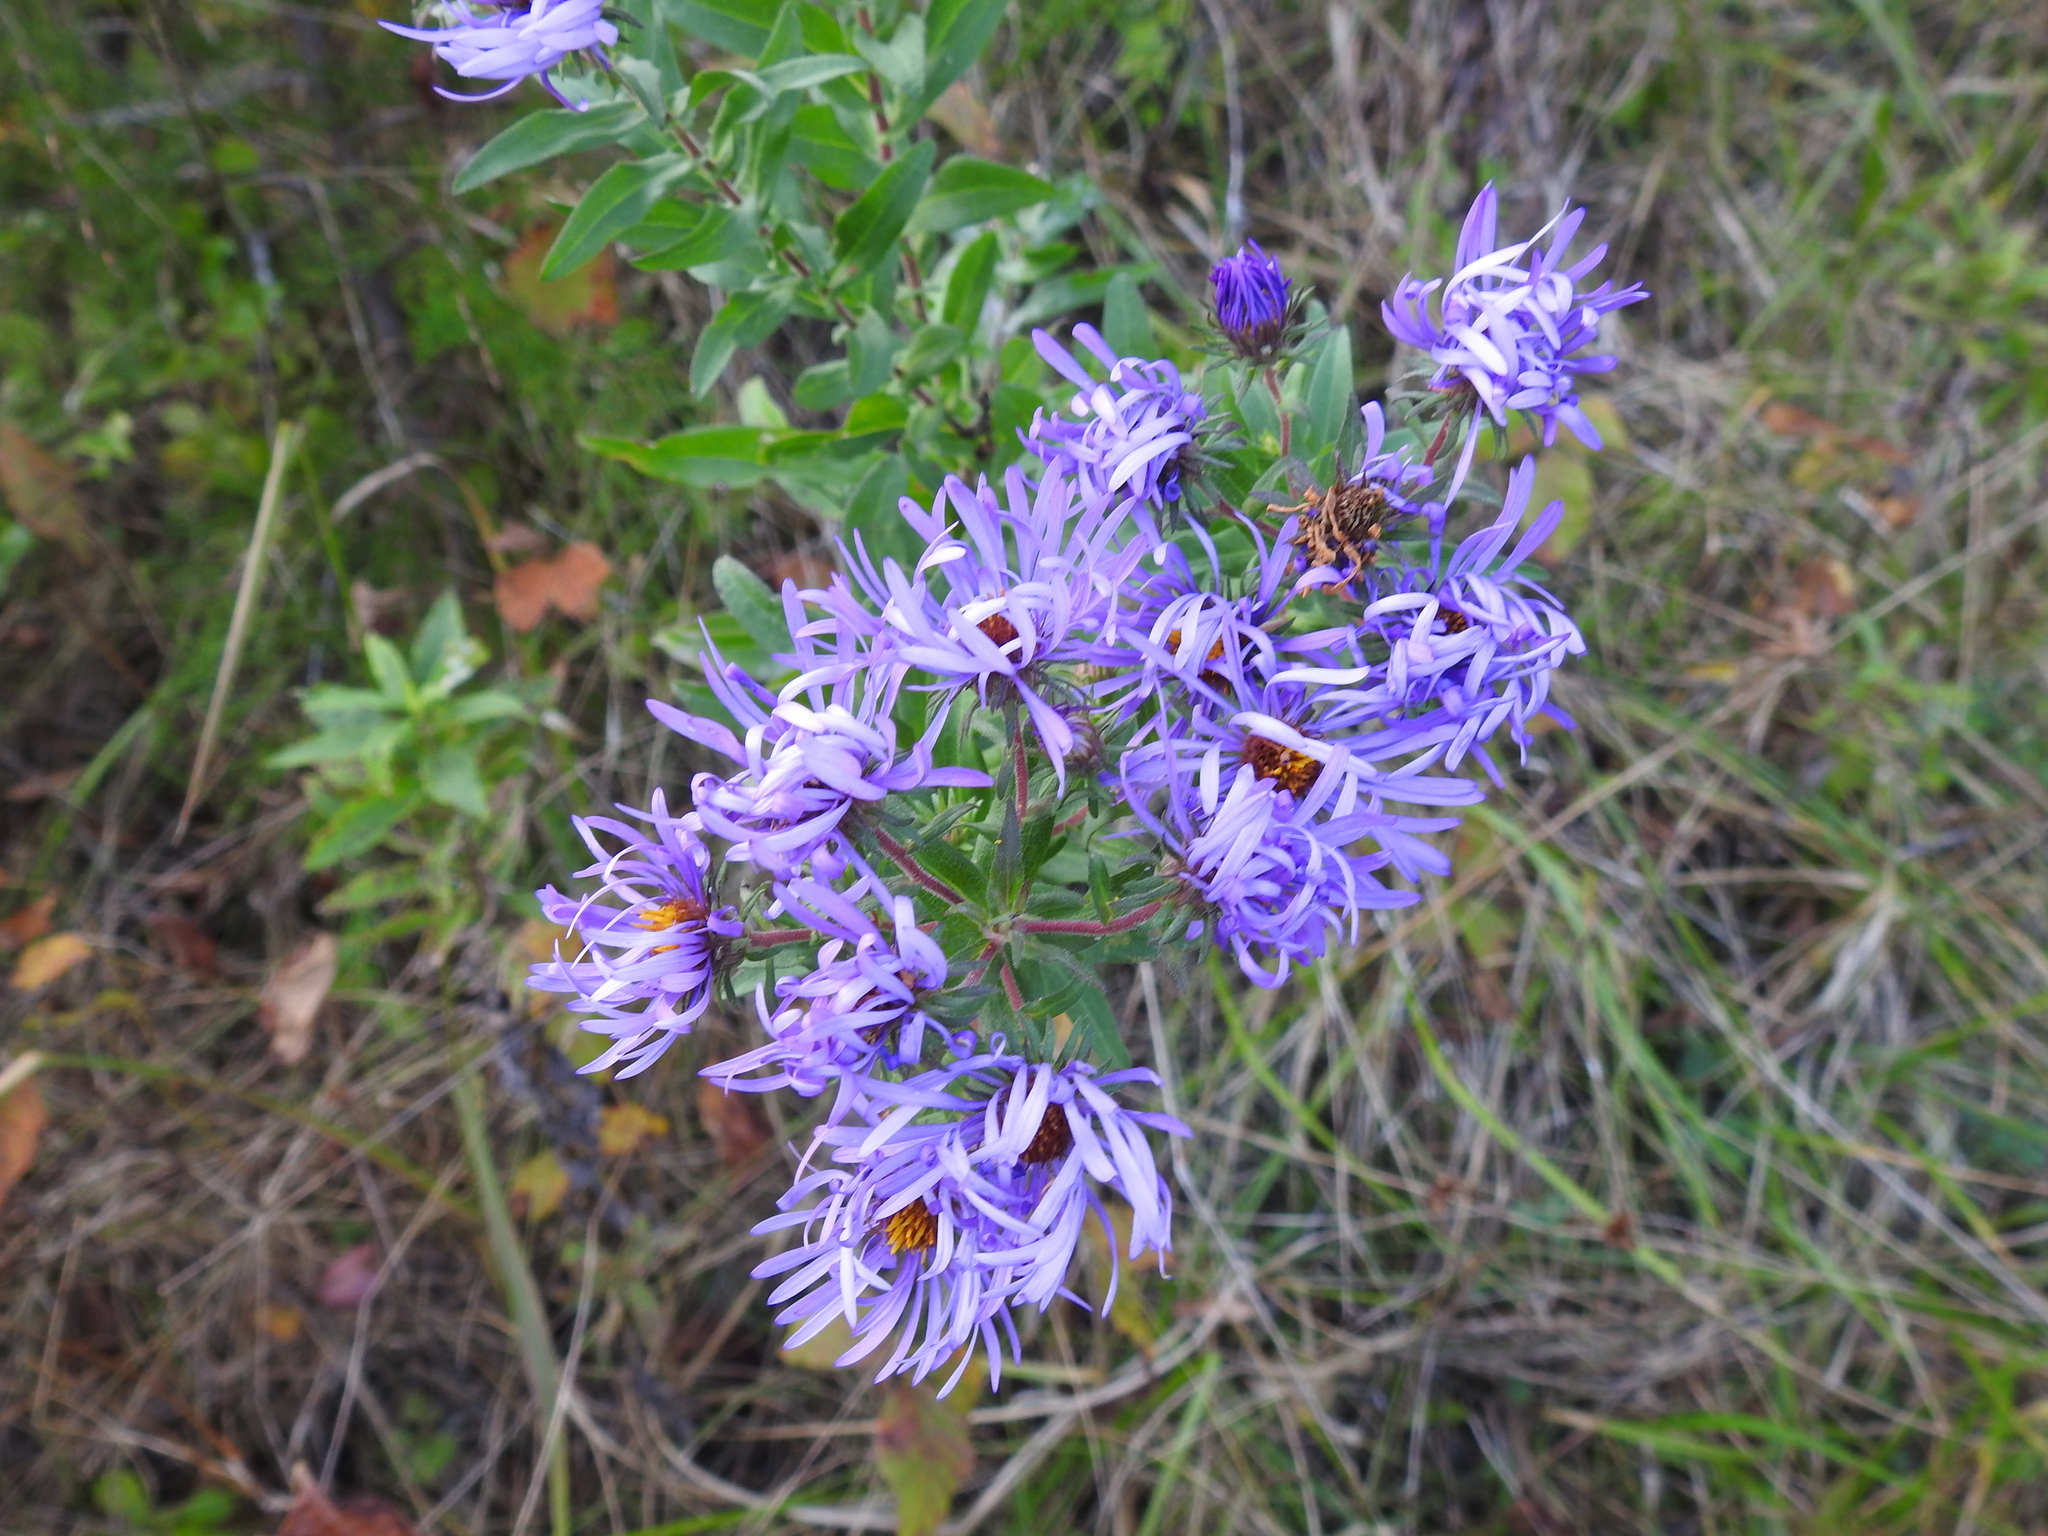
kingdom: Plantae
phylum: Tracheophyta
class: Magnoliopsida
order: Asterales
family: Asteraceae
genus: Symphyotrichum
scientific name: Symphyotrichum novae-angliae
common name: Michaelmas daisy
